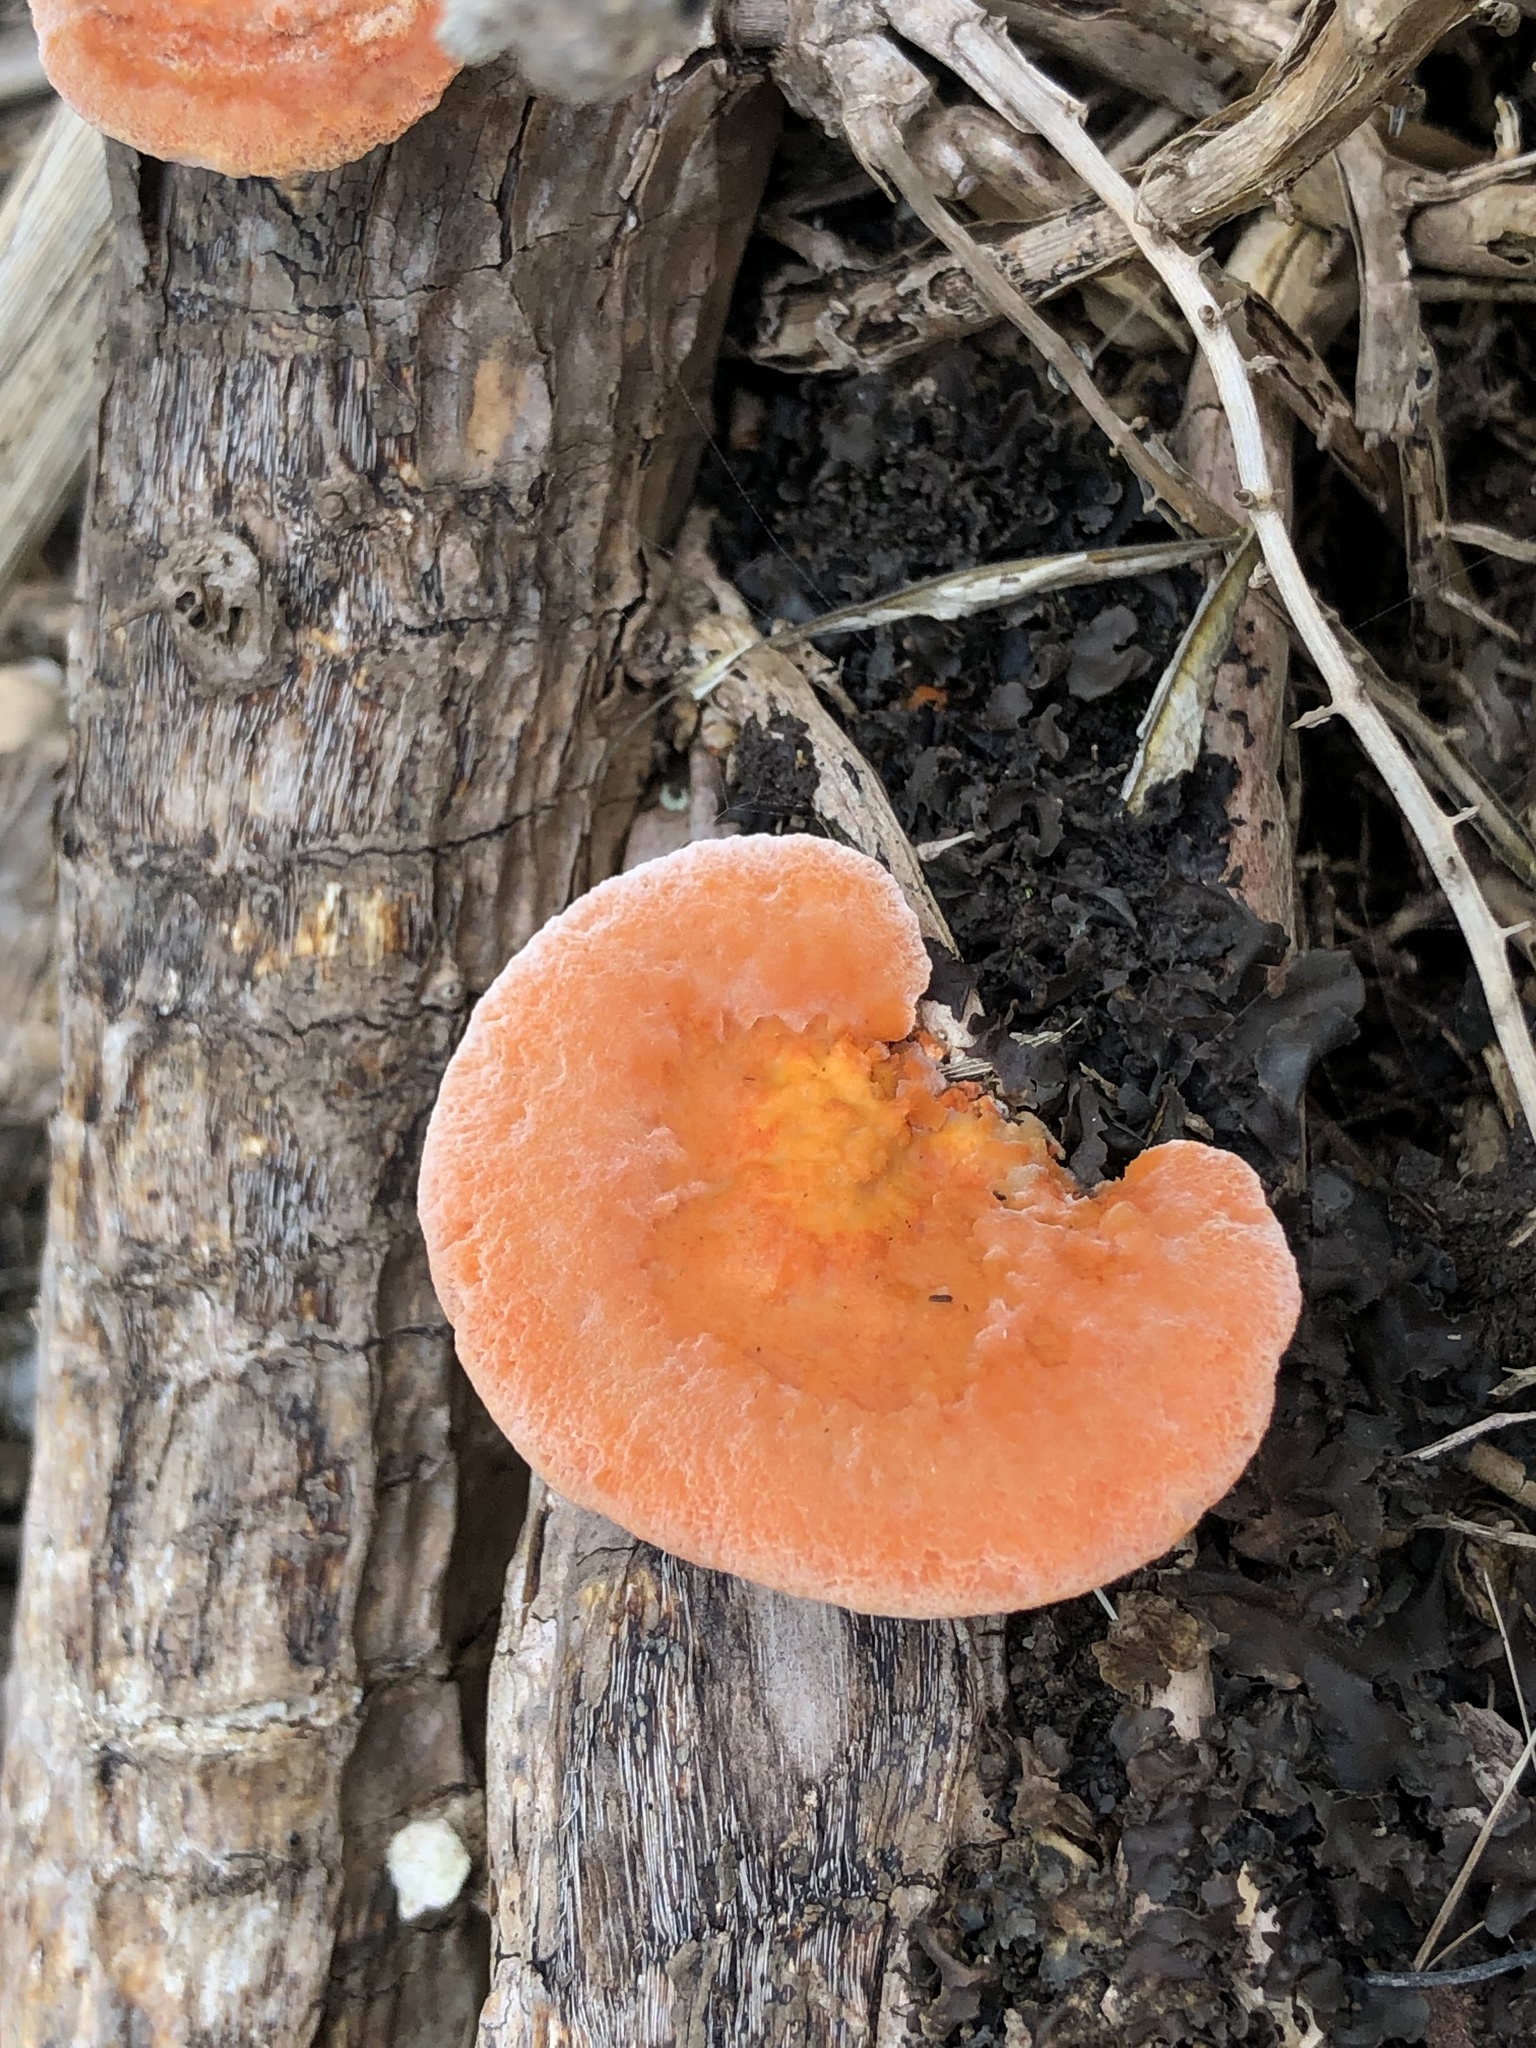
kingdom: Fungi
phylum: Basidiomycota
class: Agaricomycetes
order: Polyporales
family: Polyporaceae
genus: Trametes
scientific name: Trametes coccinea
